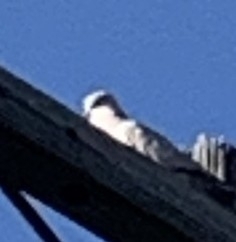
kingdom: Animalia
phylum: Chordata
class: Aves
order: Columbiformes
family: Columbidae
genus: Streptopelia
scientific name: Streptopelia decaocto
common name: Eurasian collared dove
